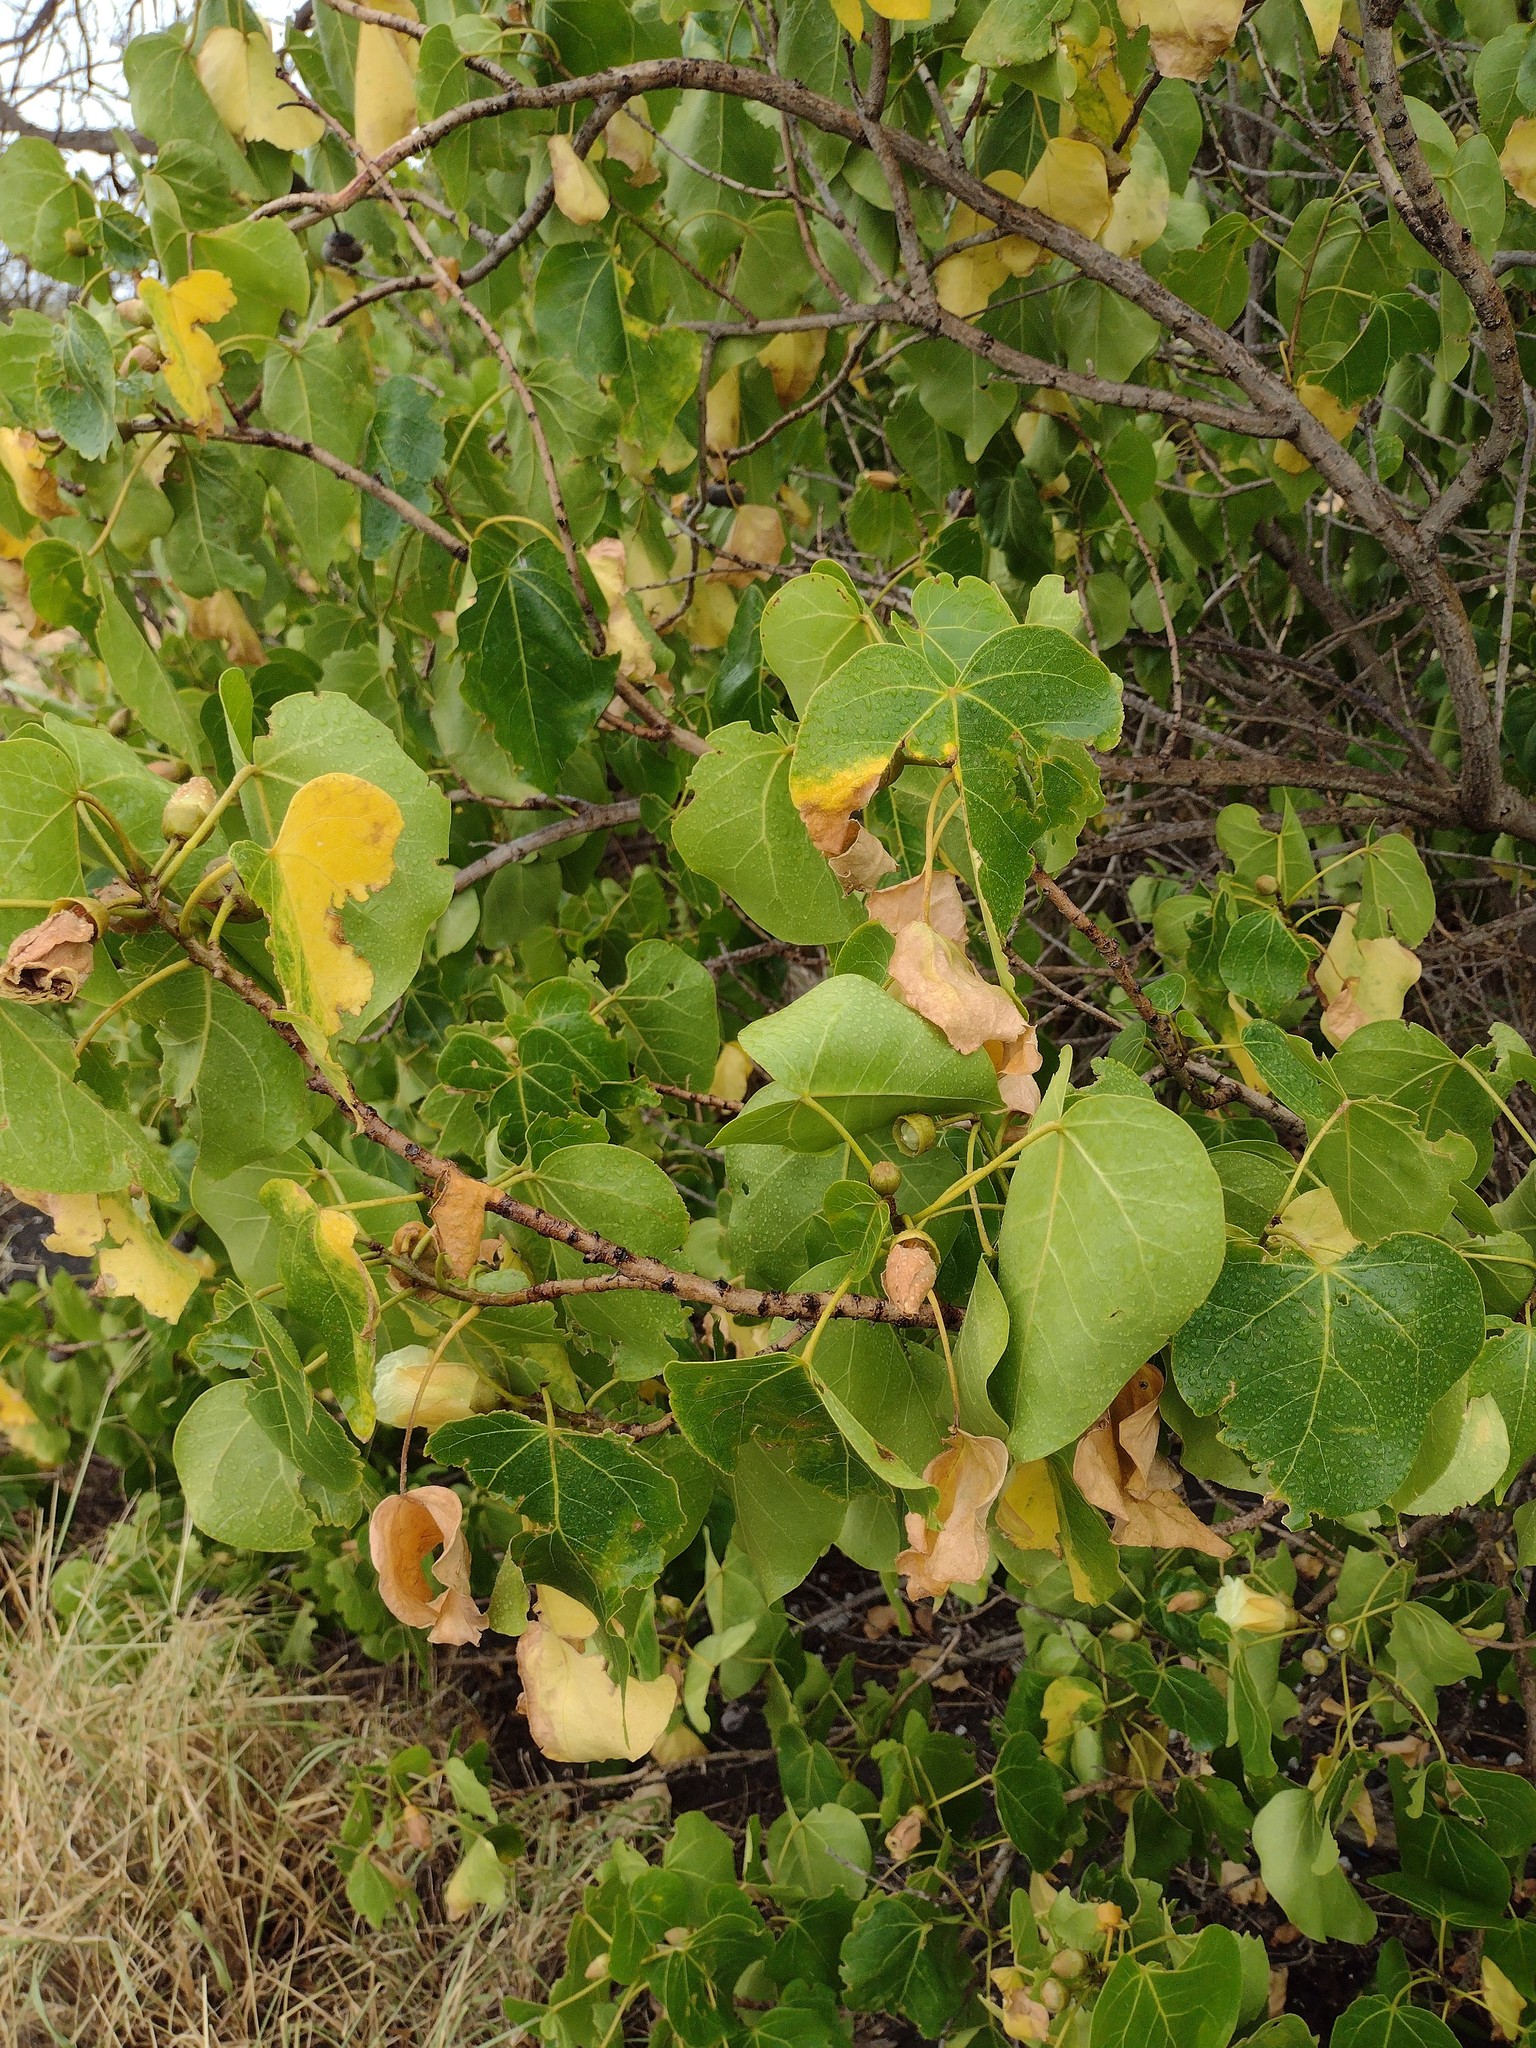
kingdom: Plantae
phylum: Tracheophyta
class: Magnoliopsida
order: Malvales
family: Malvaceae
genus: Thespesia
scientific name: Thespesia populnea
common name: Seaside mahoe
